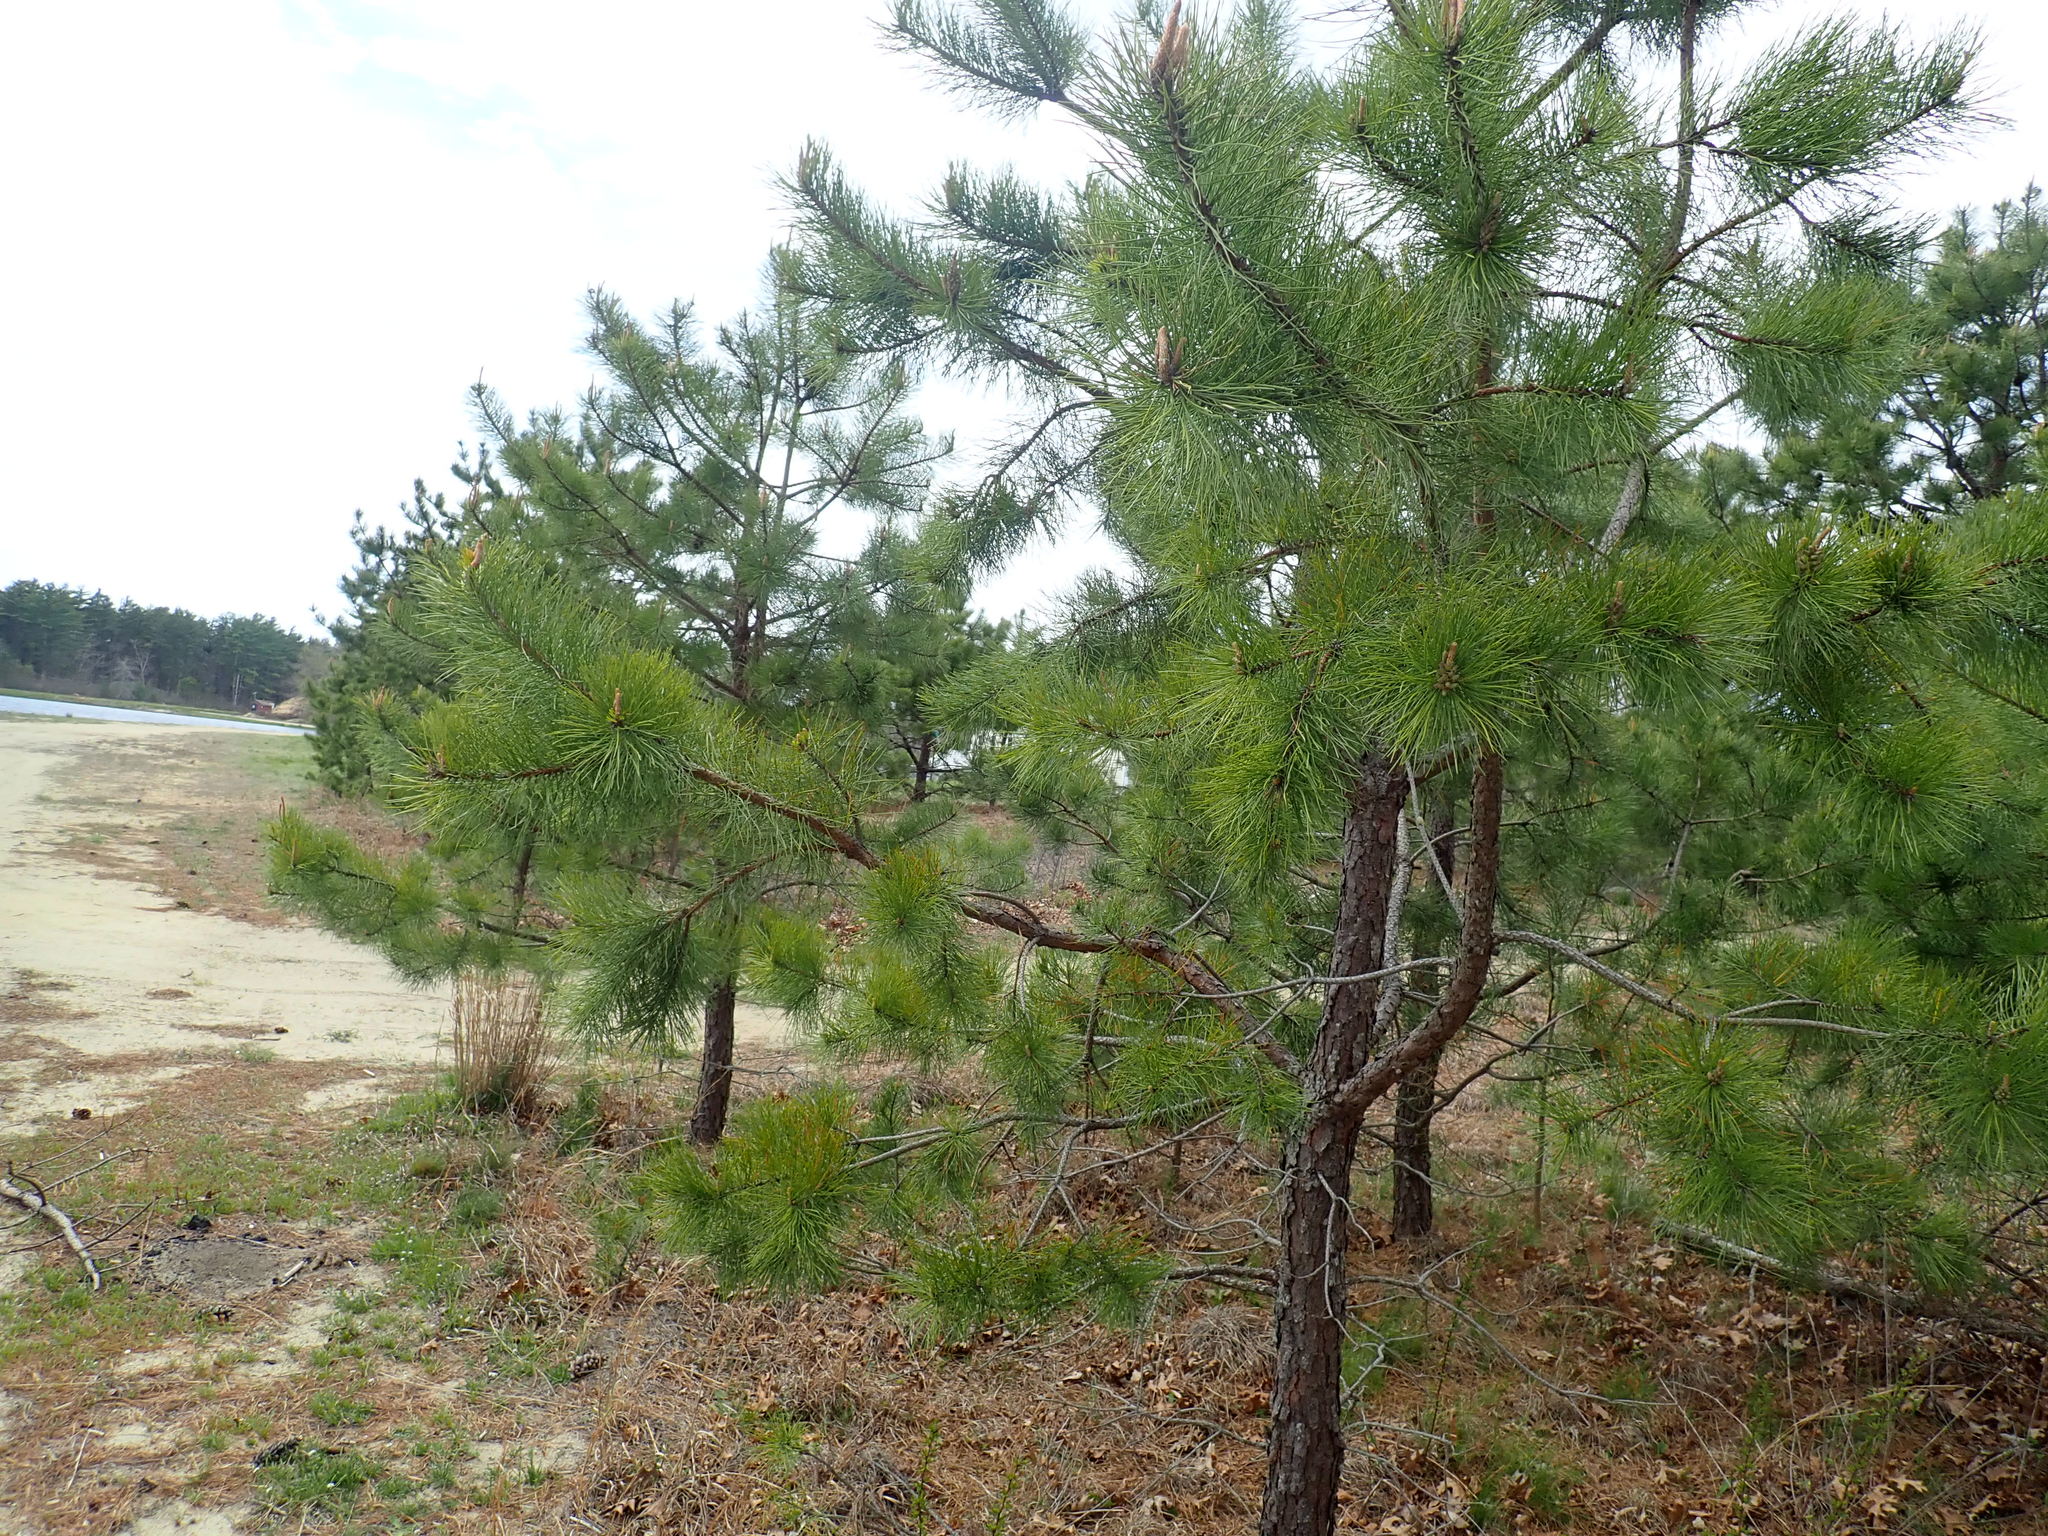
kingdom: Plantae
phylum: Tracheophyta
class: Pinopsida
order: Pinales
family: Pinaceae
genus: Pinus
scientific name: Pinus rigida
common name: Pitch pine
